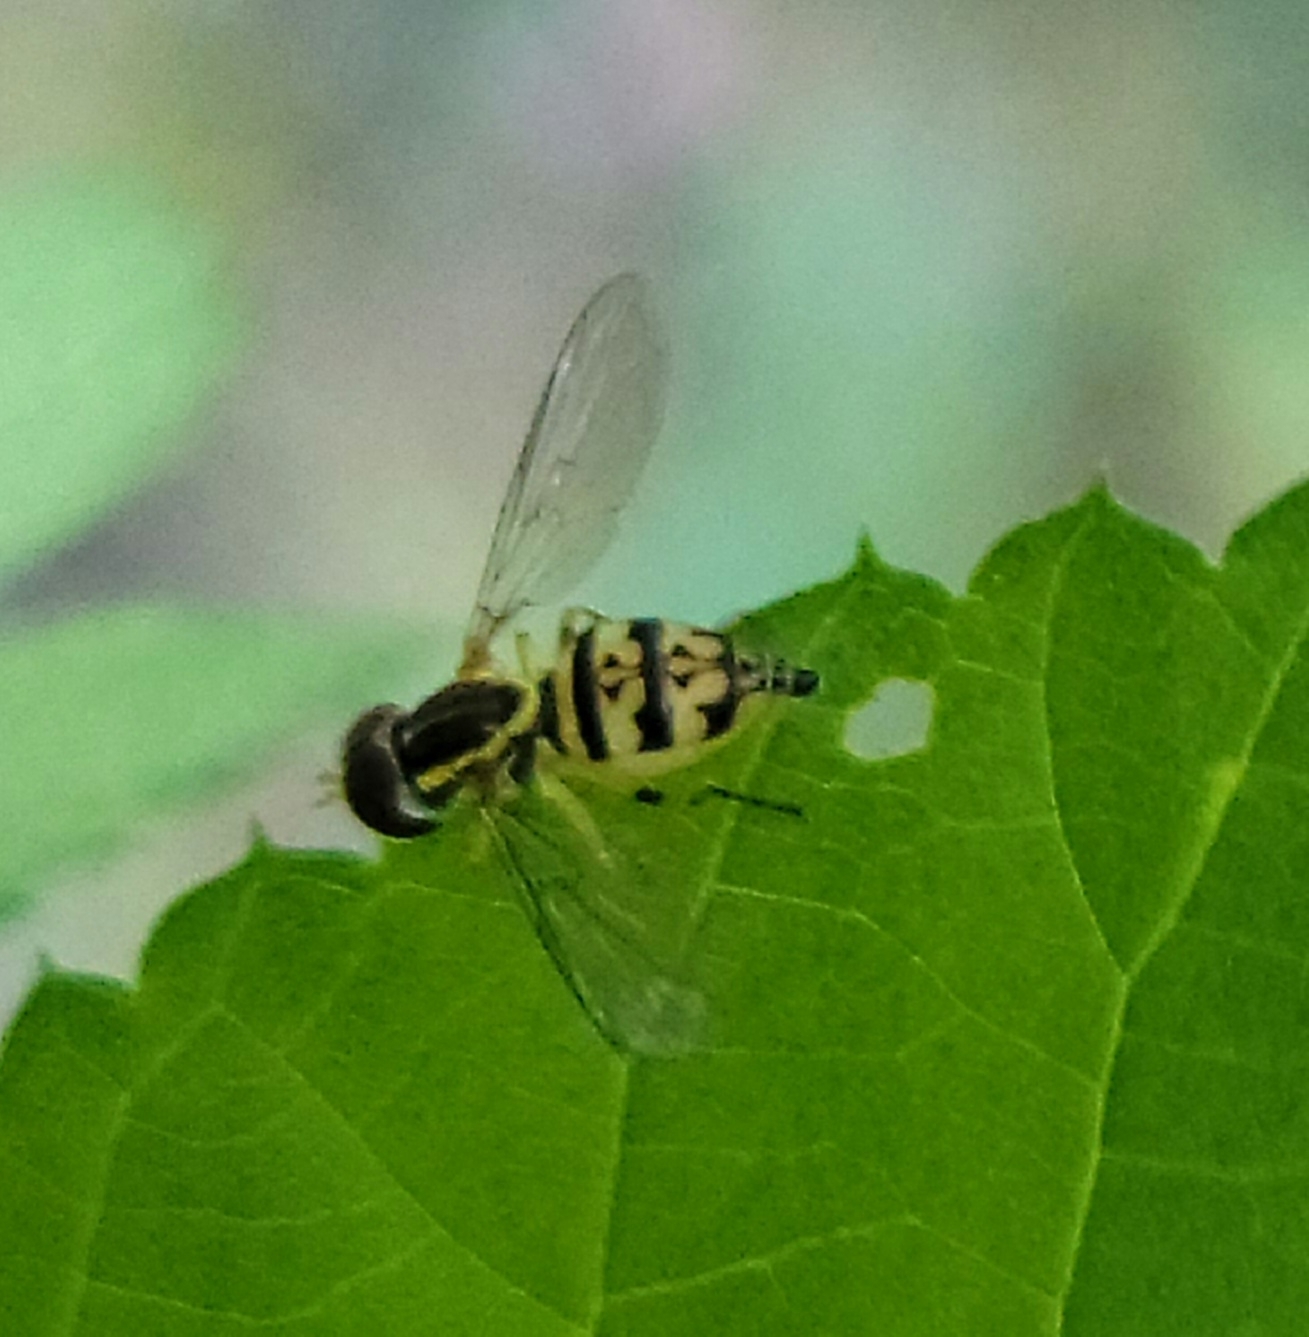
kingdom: Animalia
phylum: Arthropoda
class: Insecta
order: Diptera
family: Syrphidae
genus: Toxomerus
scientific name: Toxomerus geminatus
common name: Eastern calligrapher
